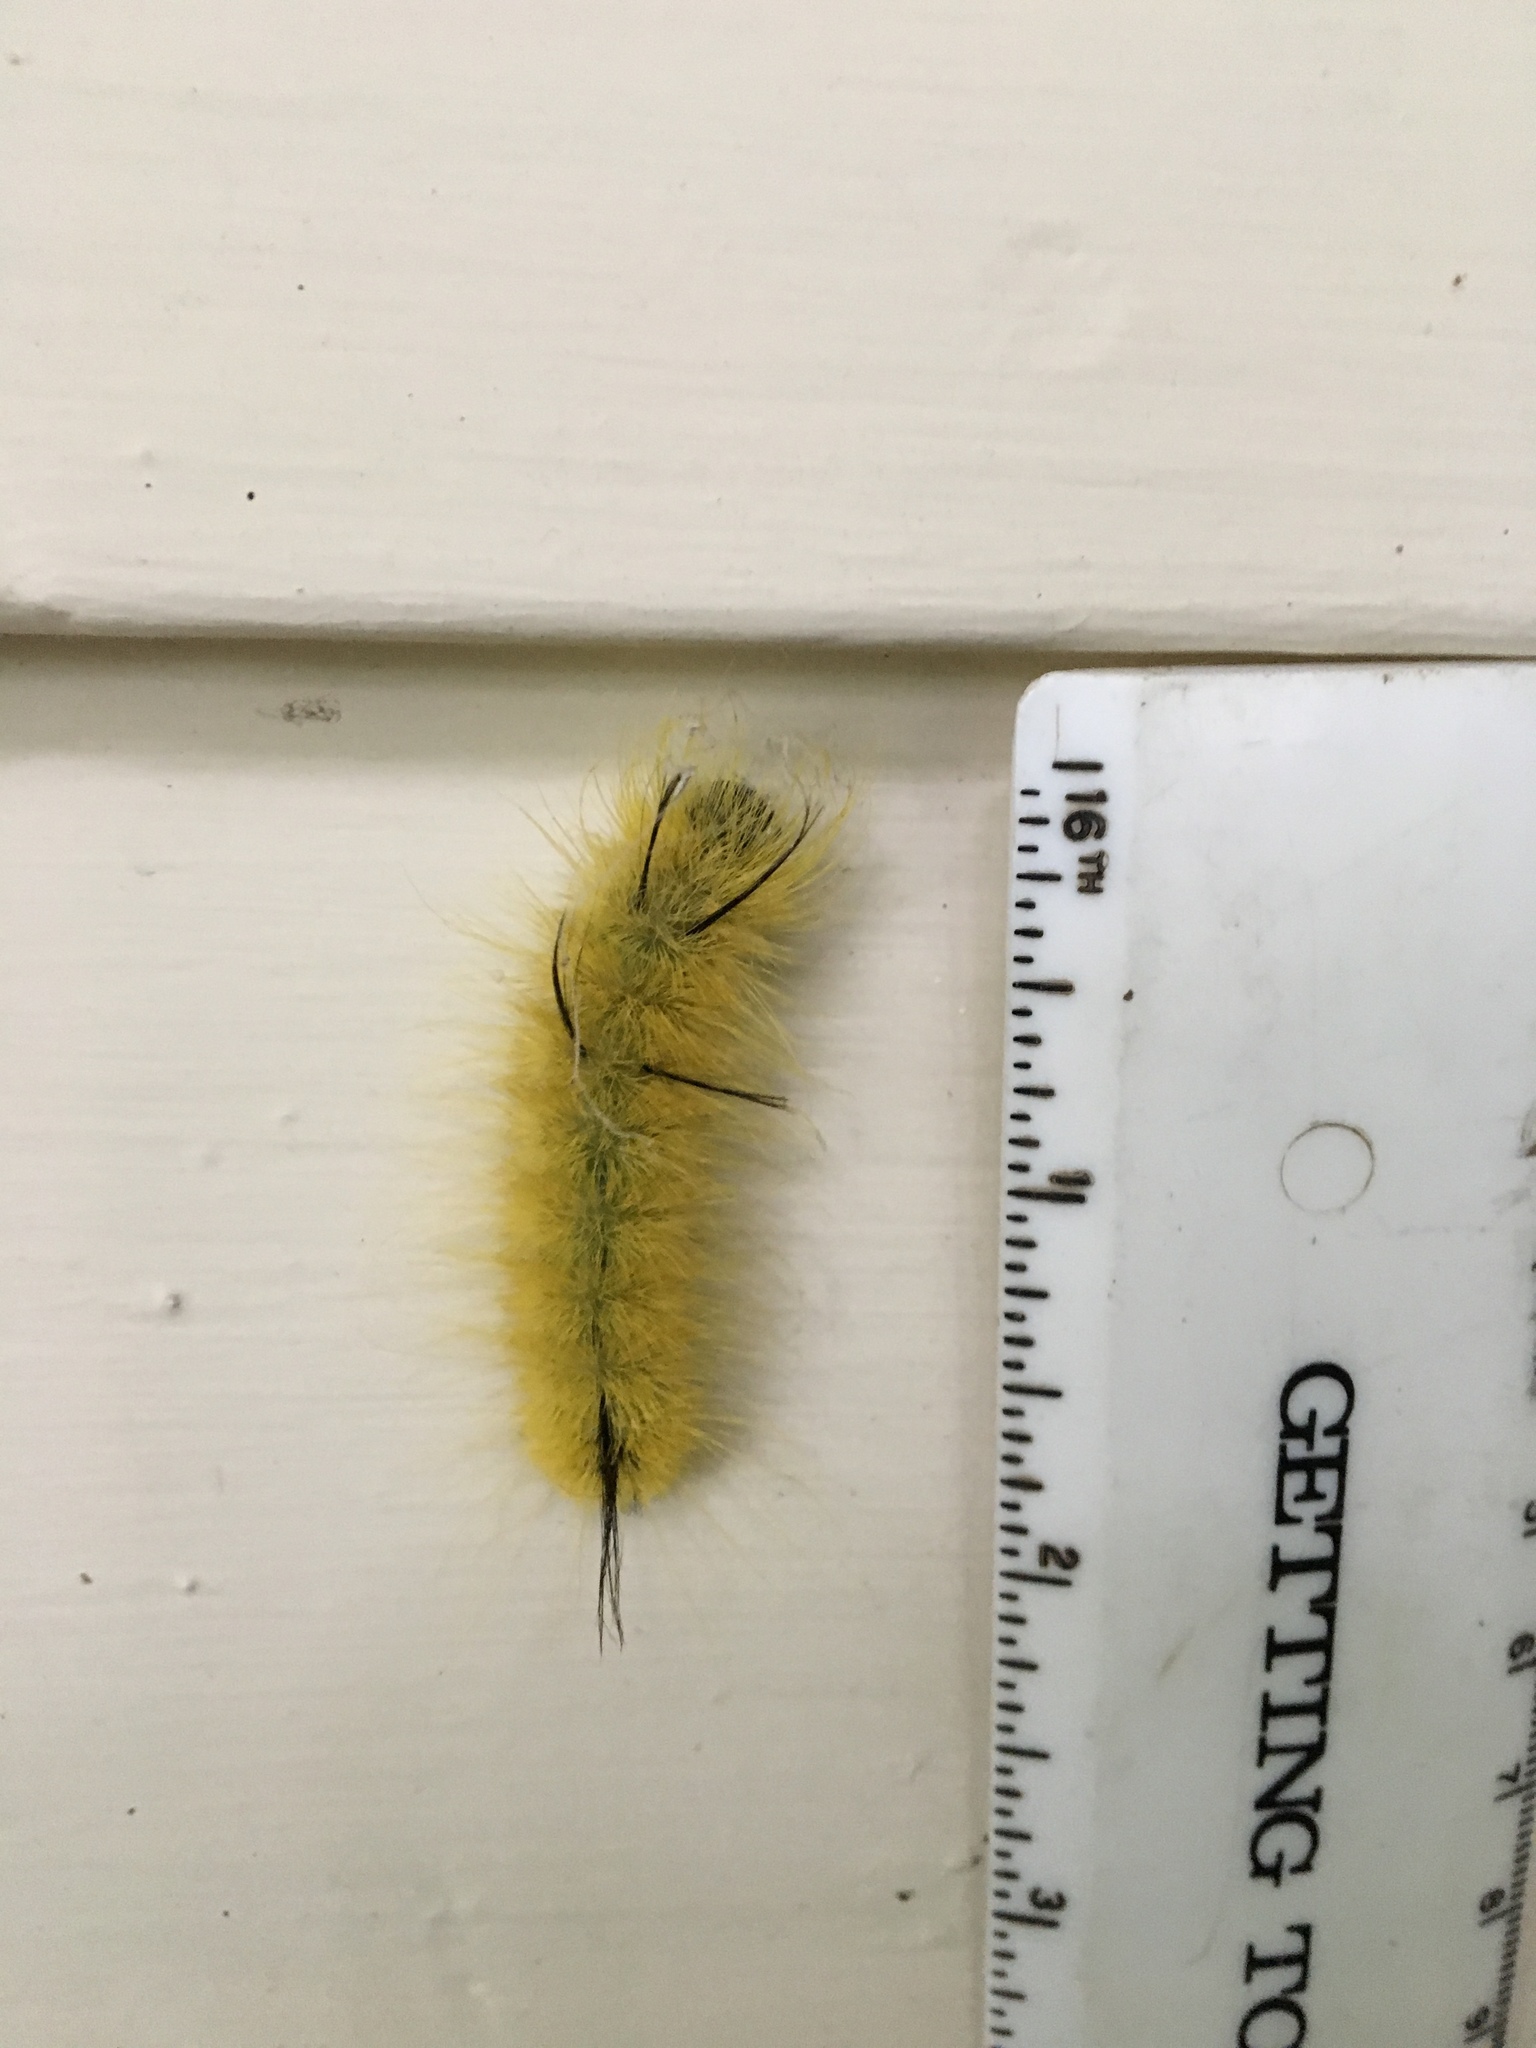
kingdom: Animalia
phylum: Arthropoda
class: Insecta
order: Lepidoptera
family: Noctuidae
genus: Acronicta
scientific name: Acronicta americana
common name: American dagger
